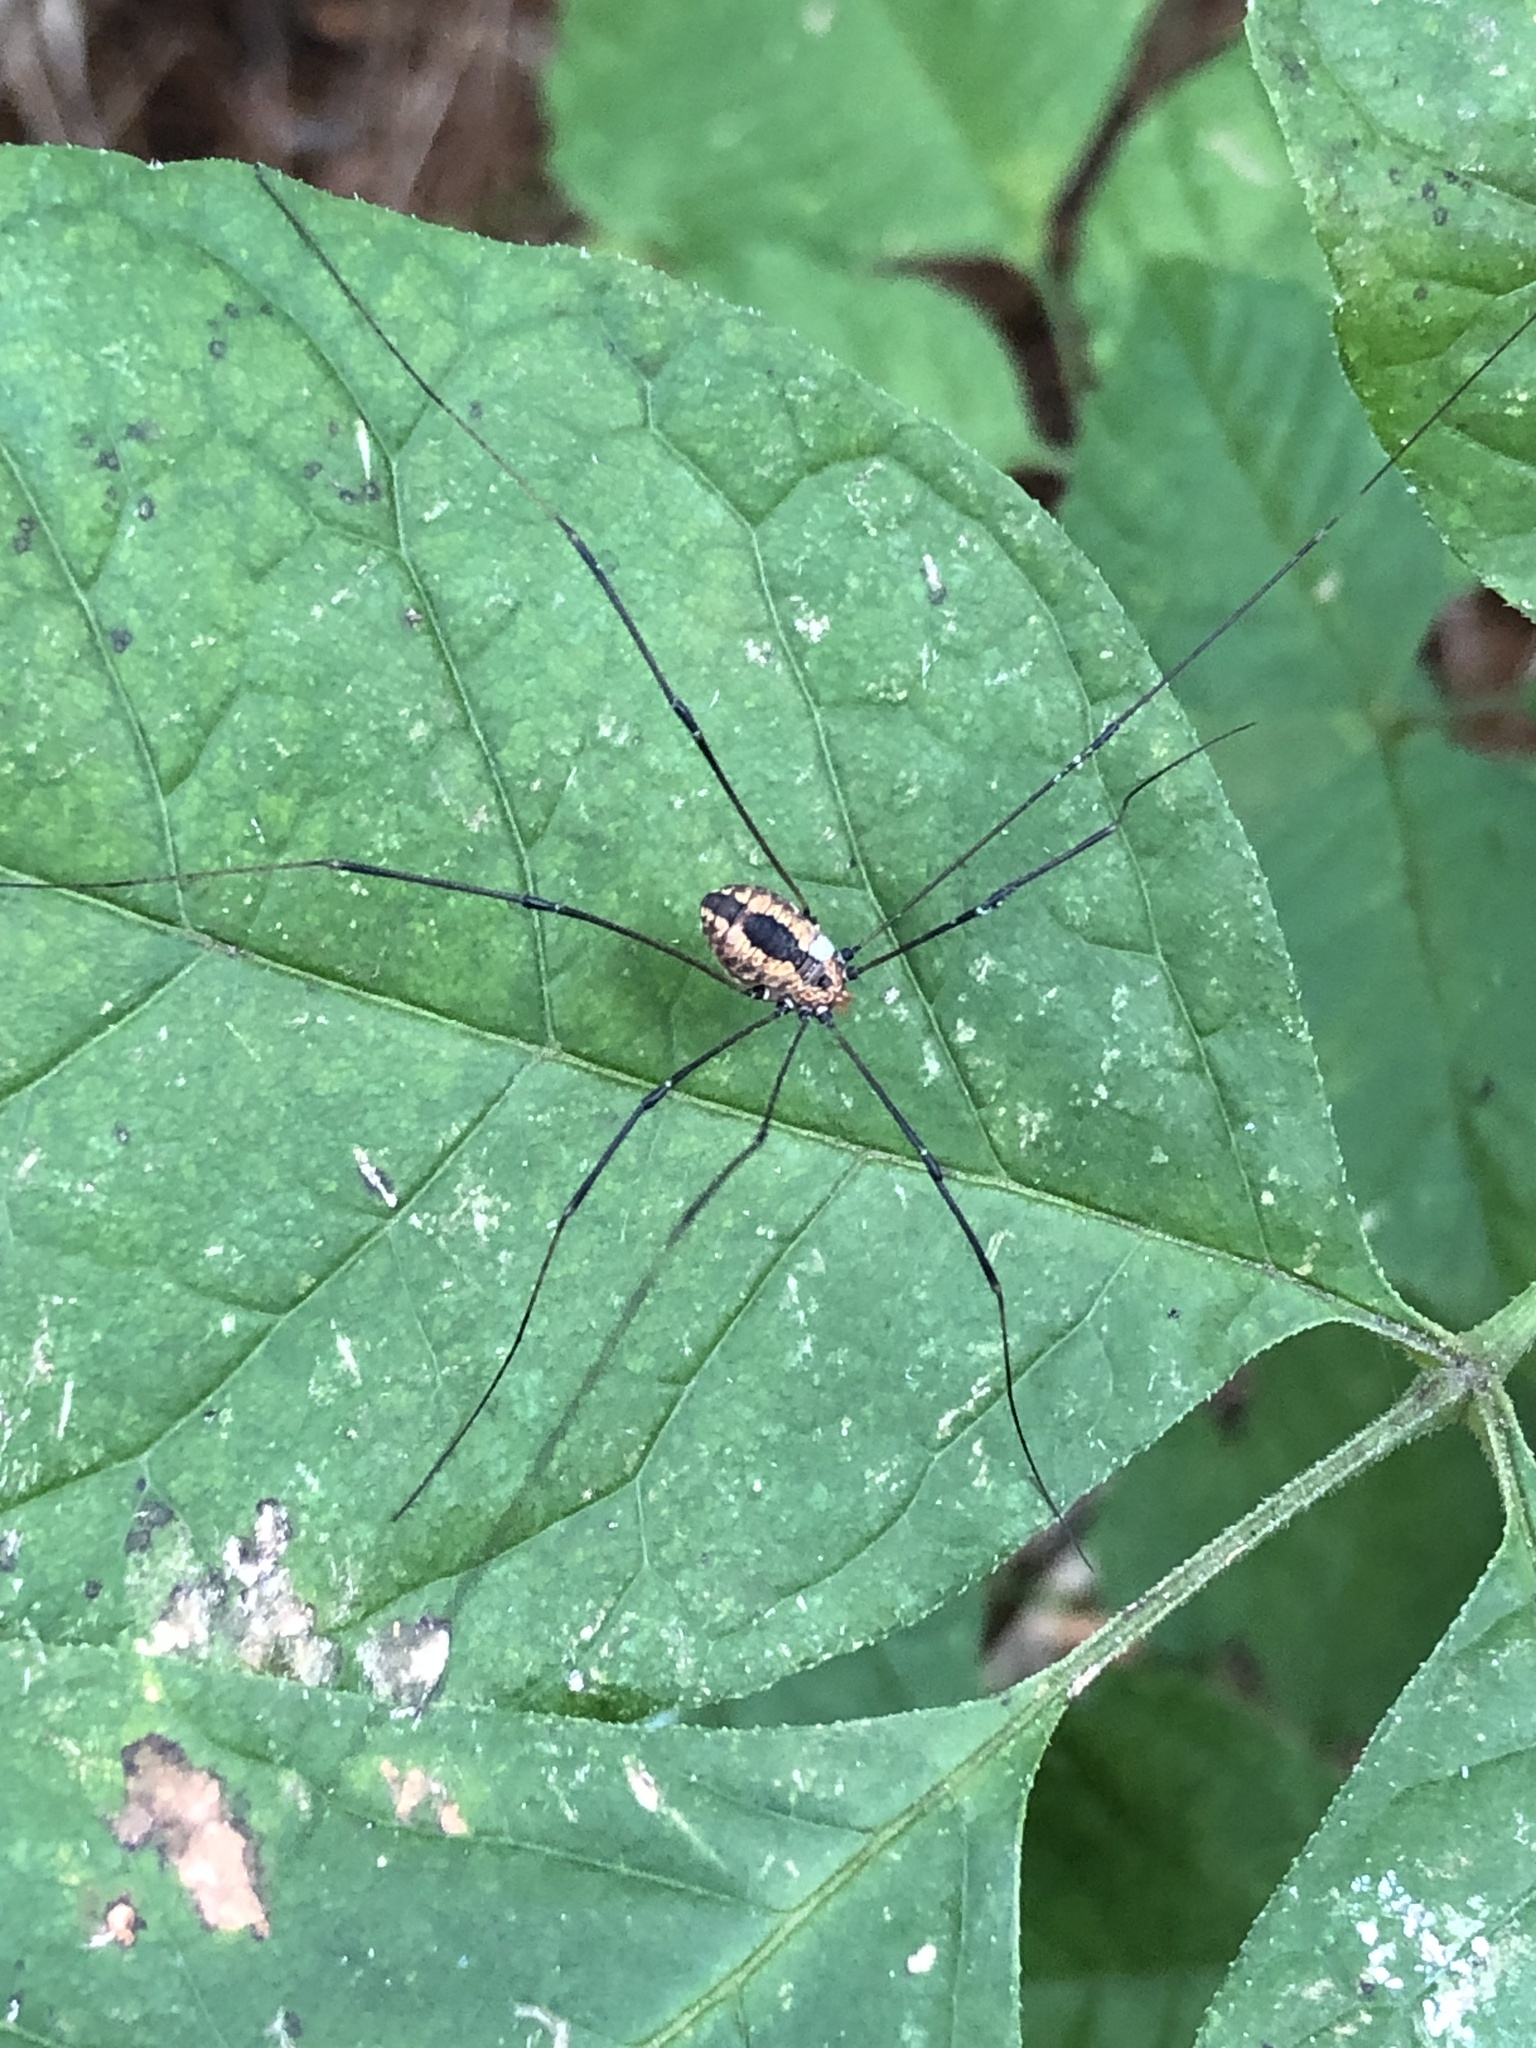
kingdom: Animalia
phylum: Arthropoda
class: Arachnida
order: Opiliones
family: Sclerosomatidae
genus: Leiobunum
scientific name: Leiobunum vittatum
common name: Eastern harvestman
